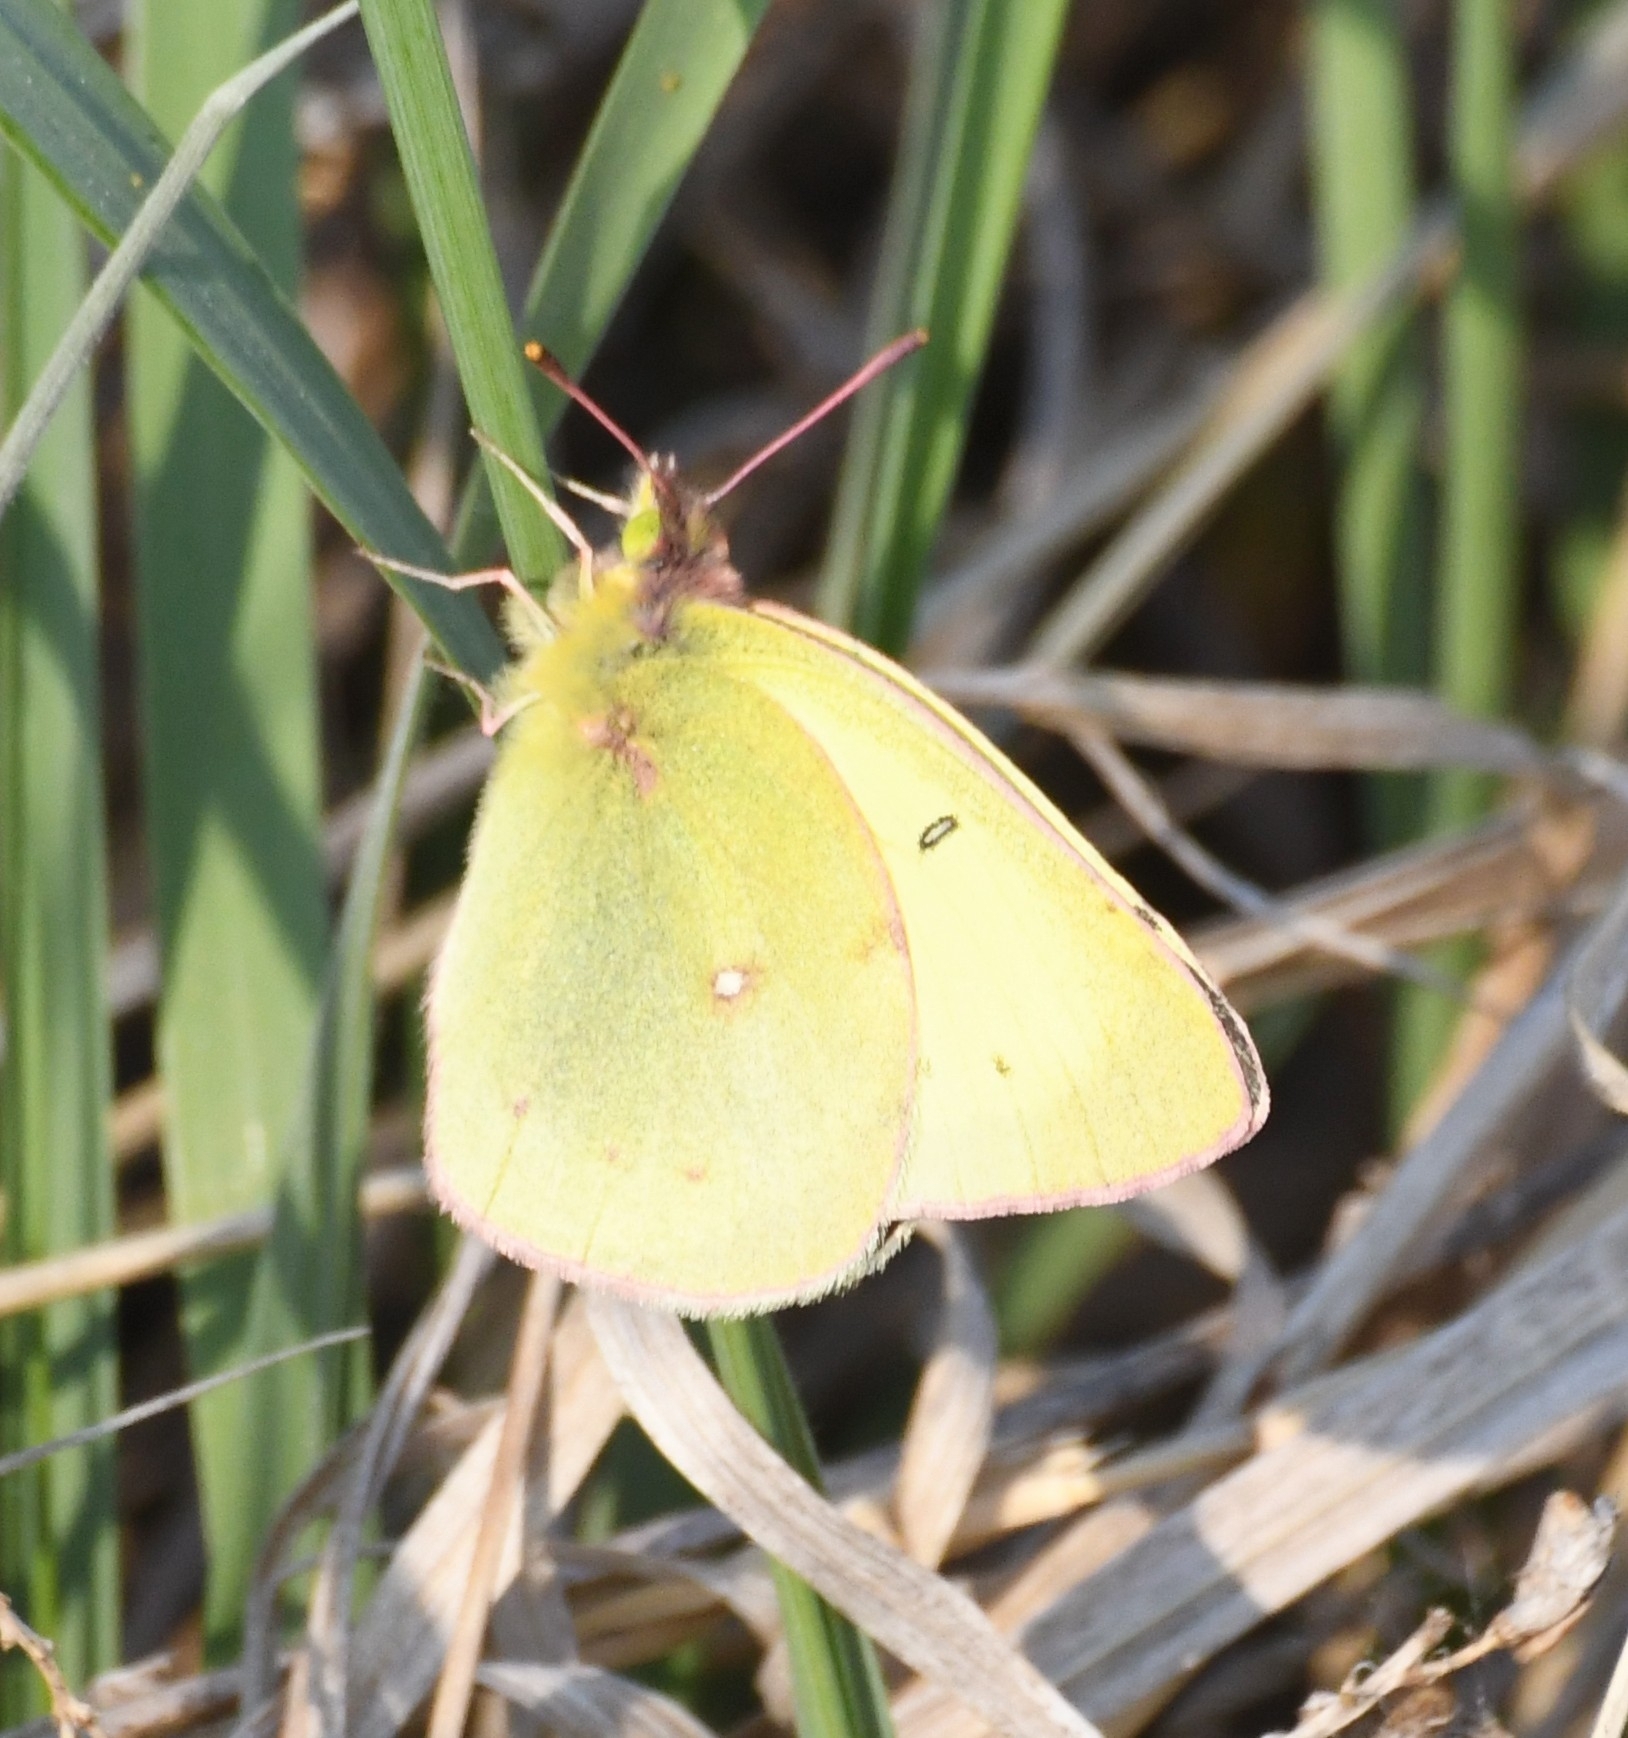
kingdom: Animalia
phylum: Arthropoda
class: Insecta
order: Lepidoptera
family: Pieridae
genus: Colias
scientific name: Colias philodice
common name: Clouded sulphur
